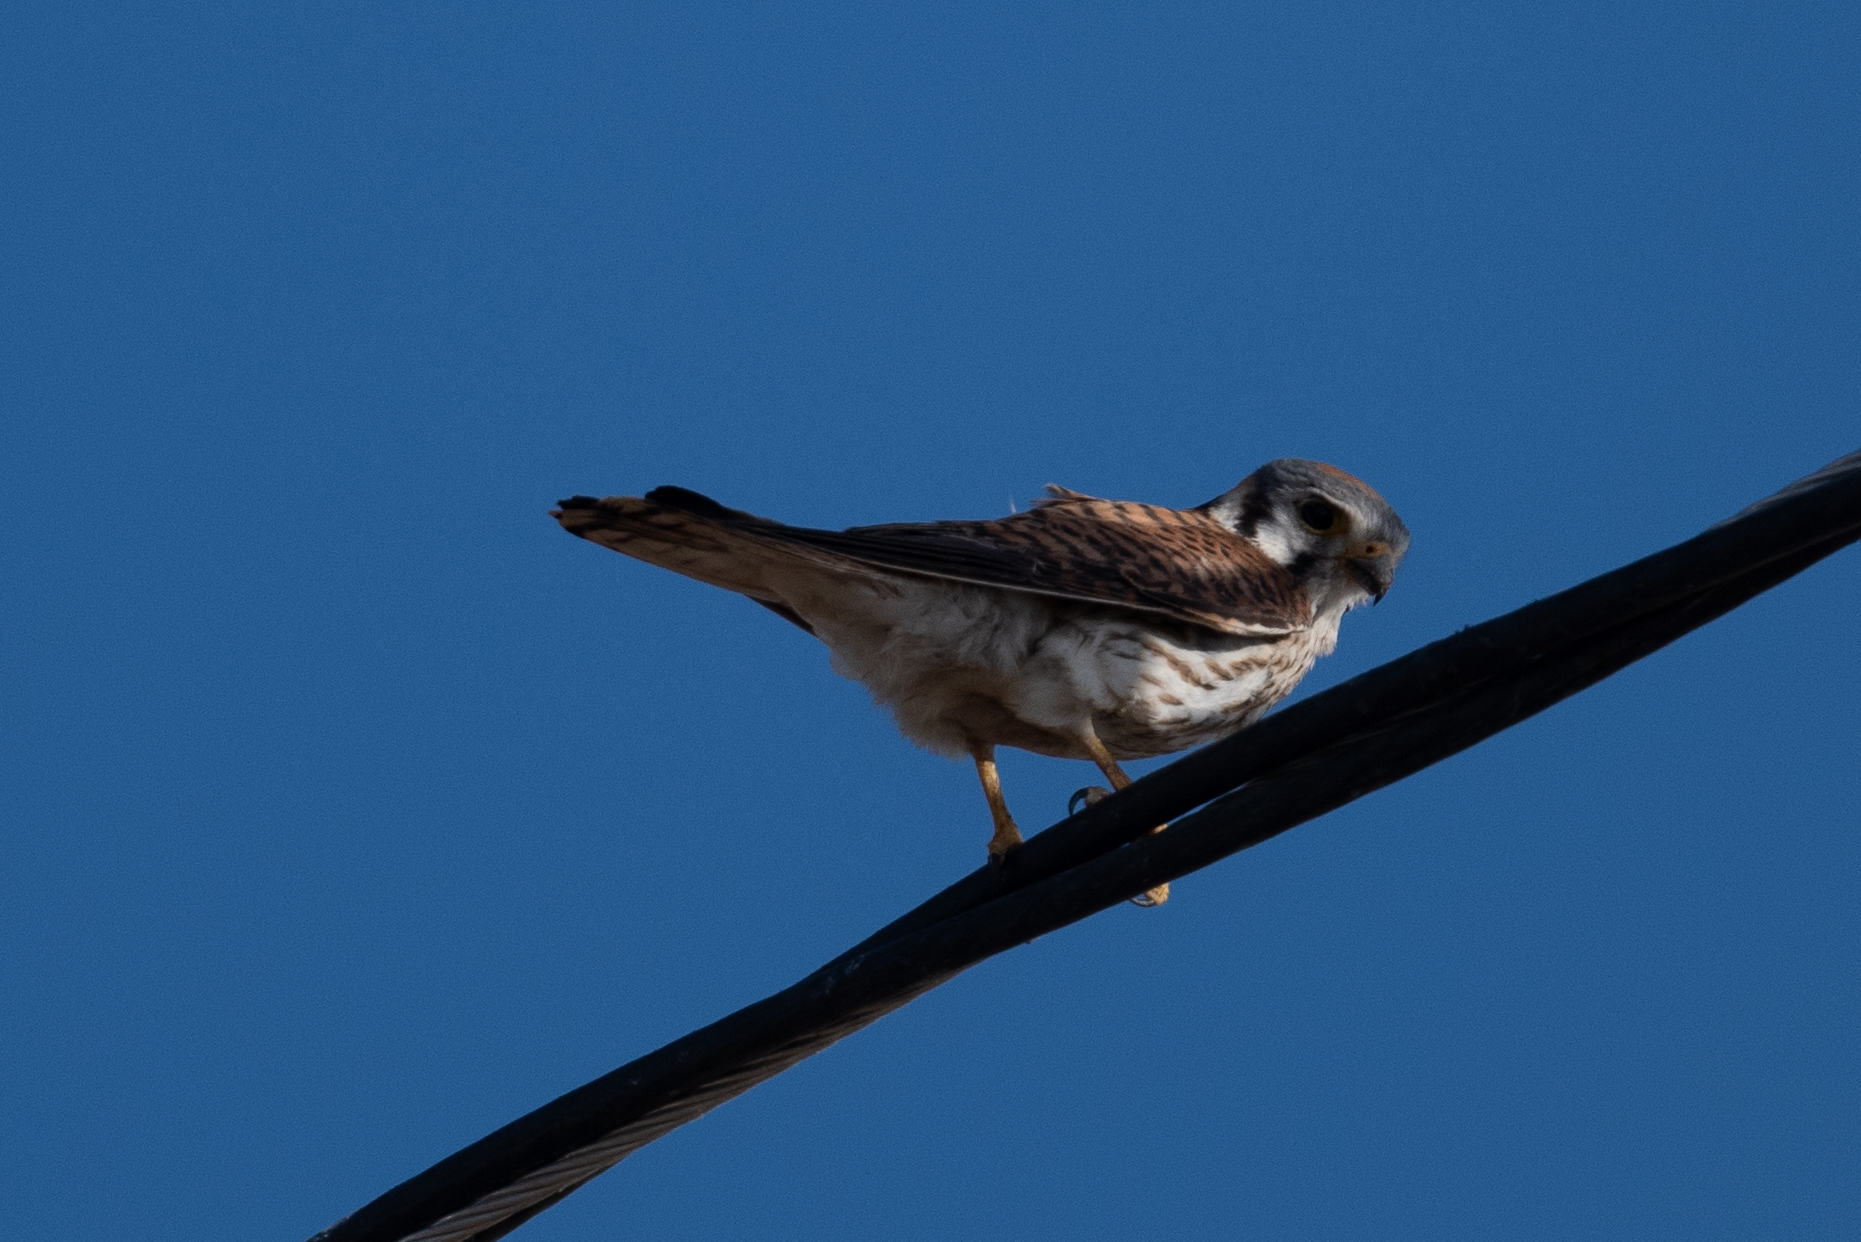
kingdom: Animalia
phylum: Chordata
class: Aves
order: Falconiformes
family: Falconidae
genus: Falco
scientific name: Falco sparverius
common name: American kestrel
